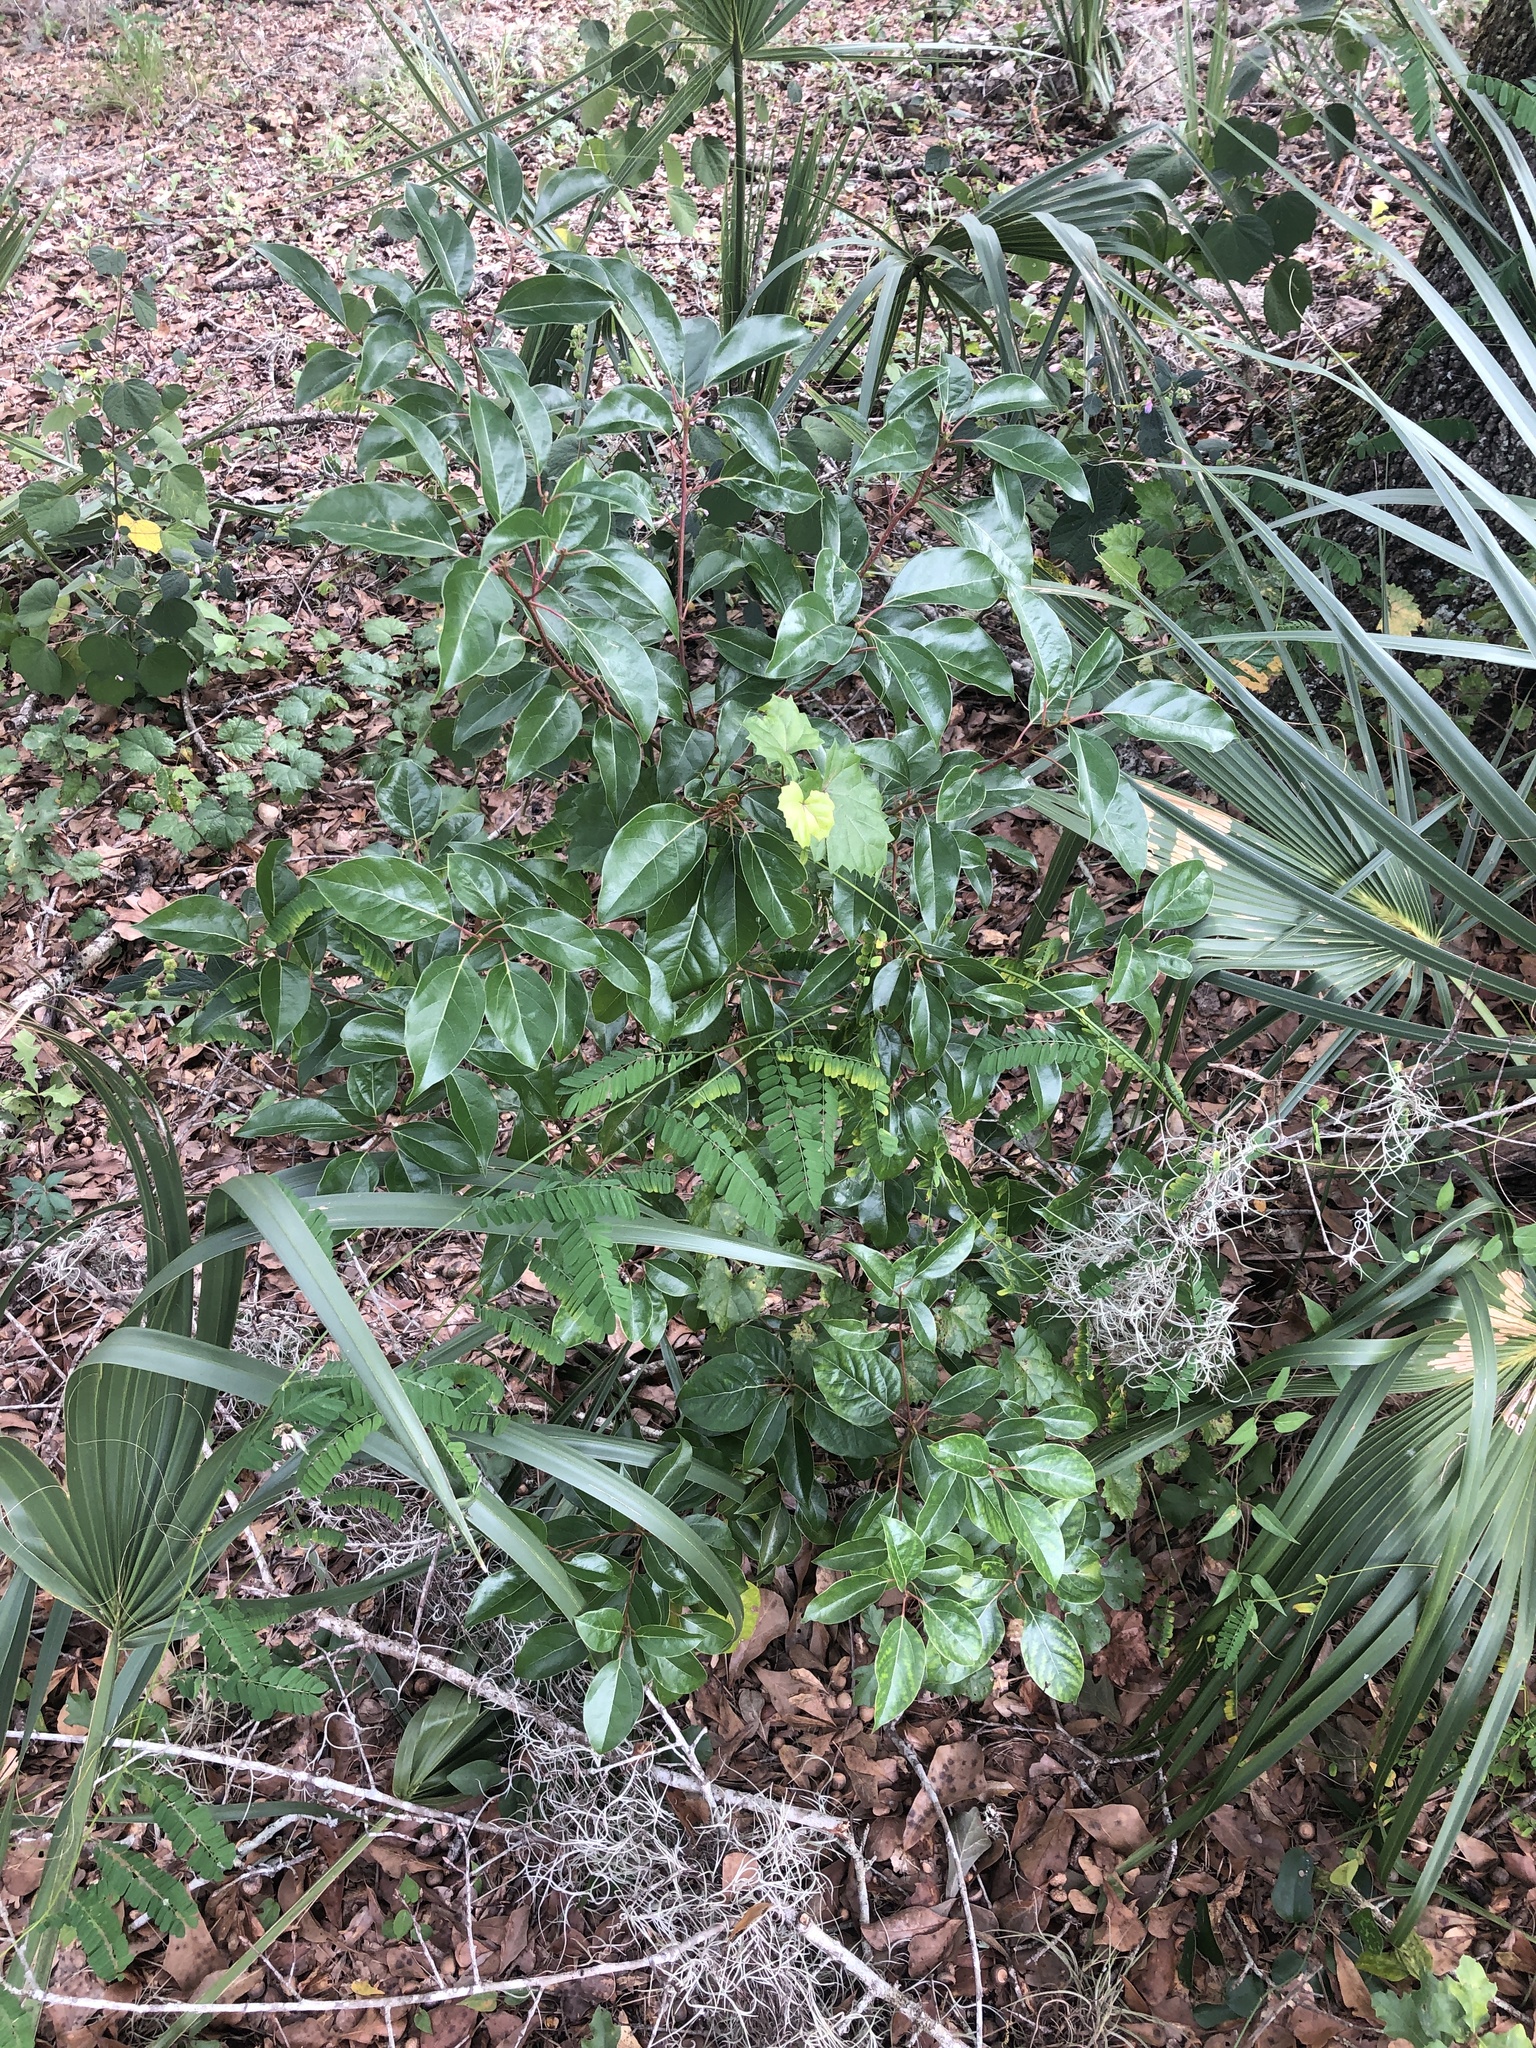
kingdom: Plantae
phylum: Tracheophyta
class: Magnoliopsida
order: Laurales
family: Lauraceae
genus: Cinnamomum
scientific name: Cinnamomum camphora
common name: Camphortree
